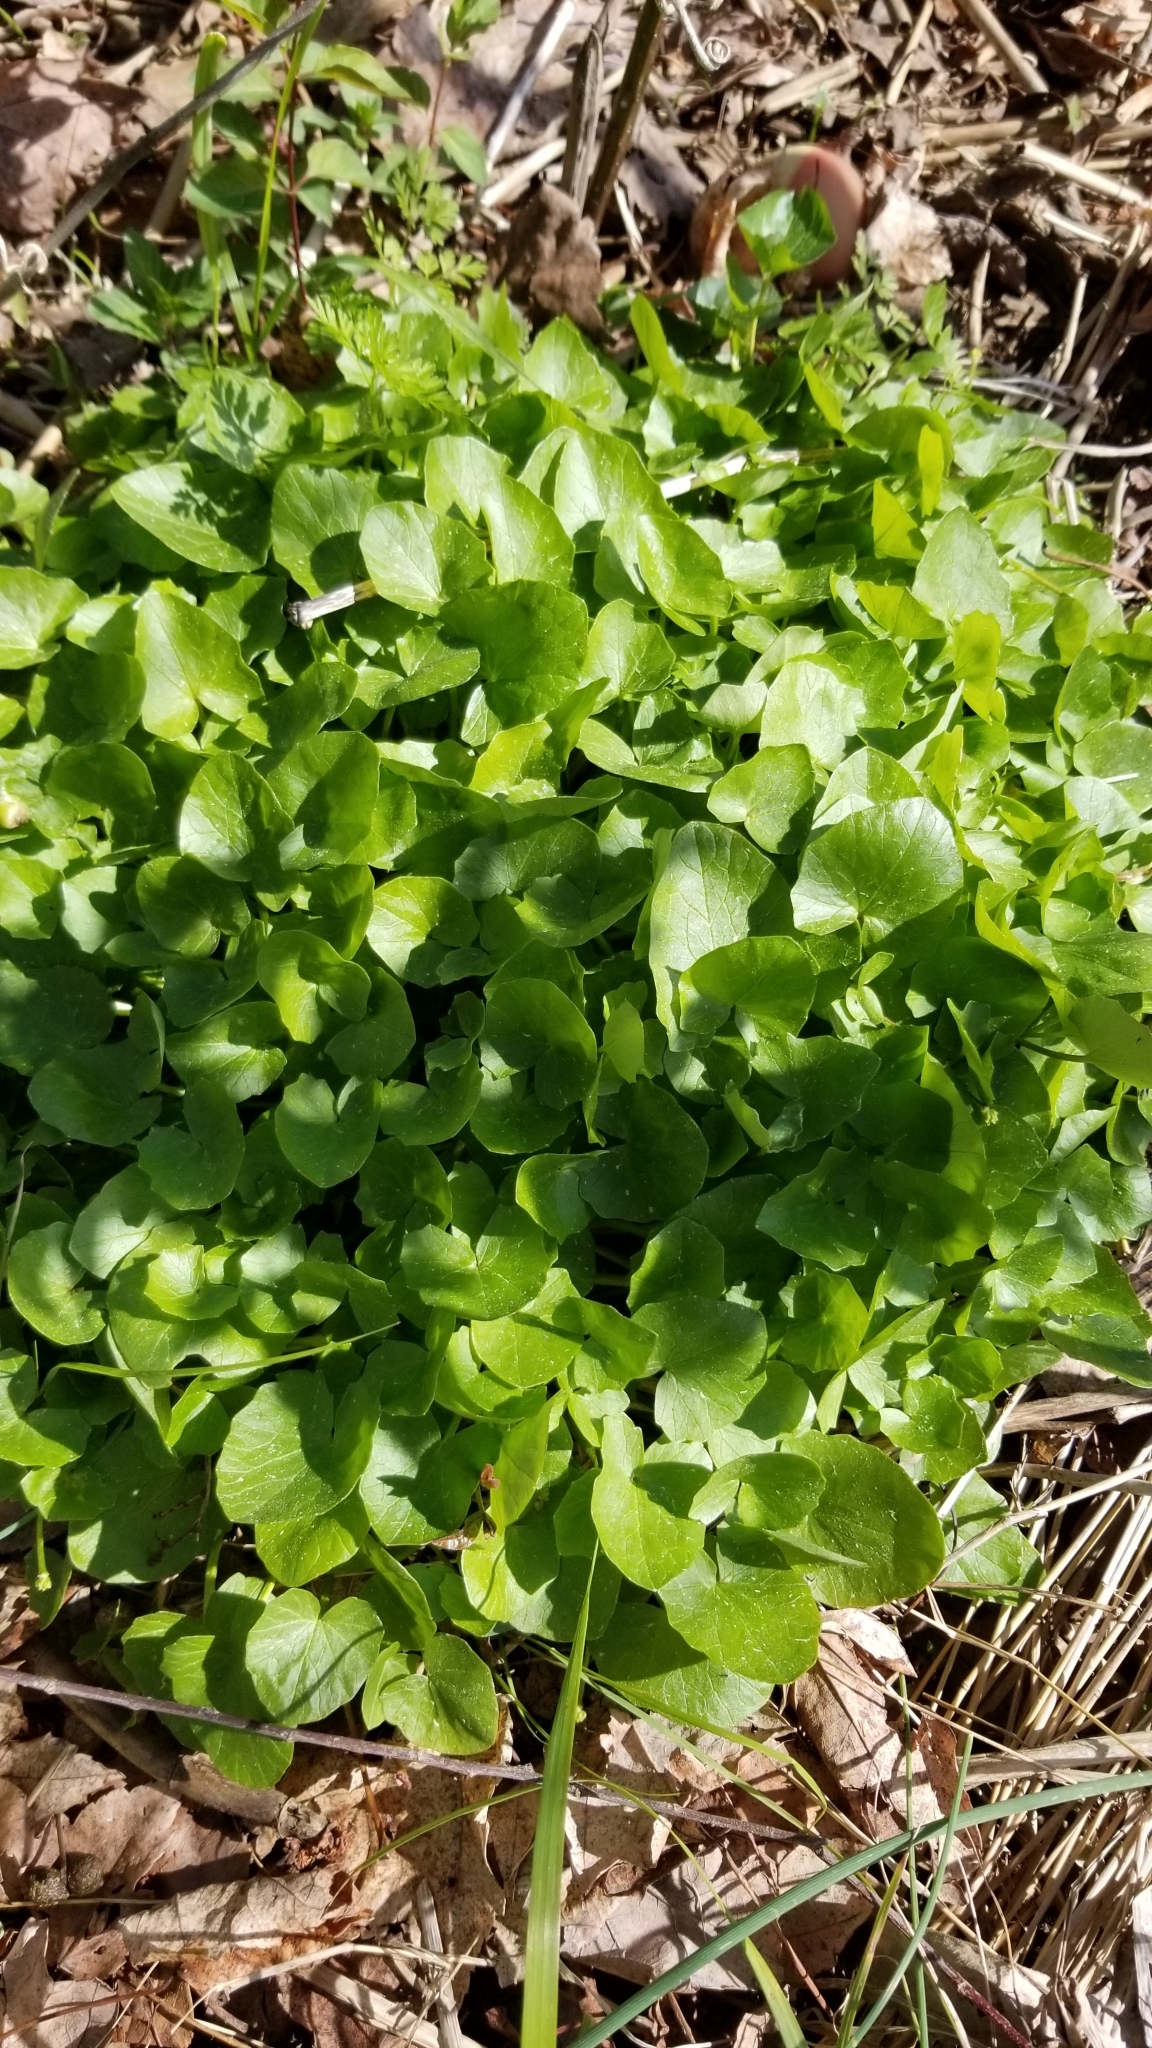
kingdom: Plantae
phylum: Tracheophyta
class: Magnoliopsida
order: Ranunculales
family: Ranunculaceae
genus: Ficaria
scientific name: Ficaria verna
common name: Lesser celandine
